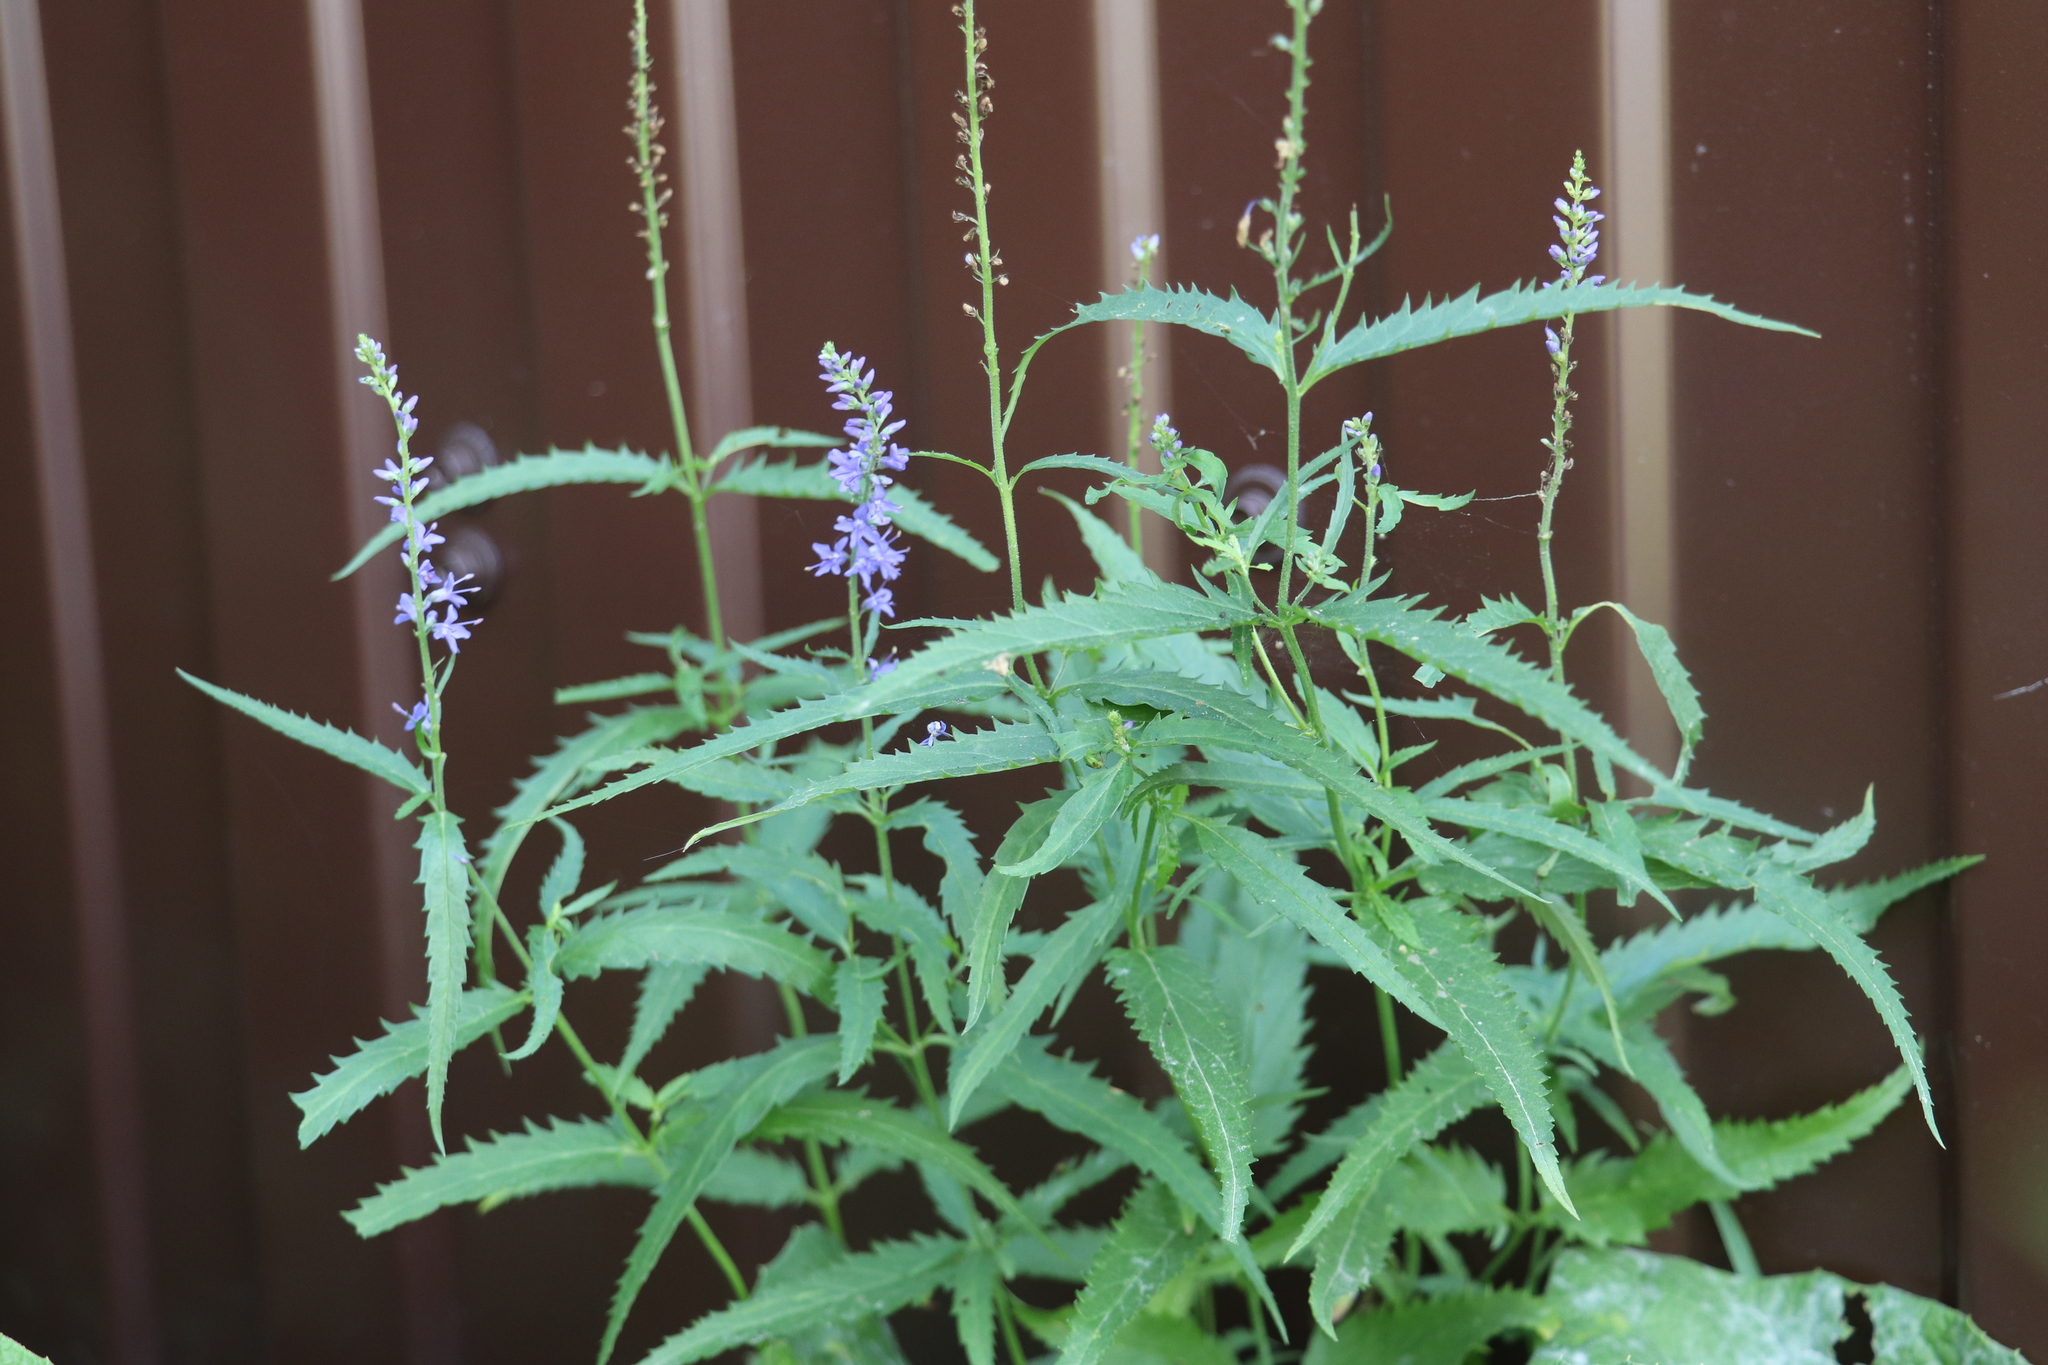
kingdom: Plantae
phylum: Tracheophyta
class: Magnoliopsida
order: Lamiales
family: Plantaginaceae
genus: Veronica
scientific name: Veronica longifolia
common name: Garden speedwell
